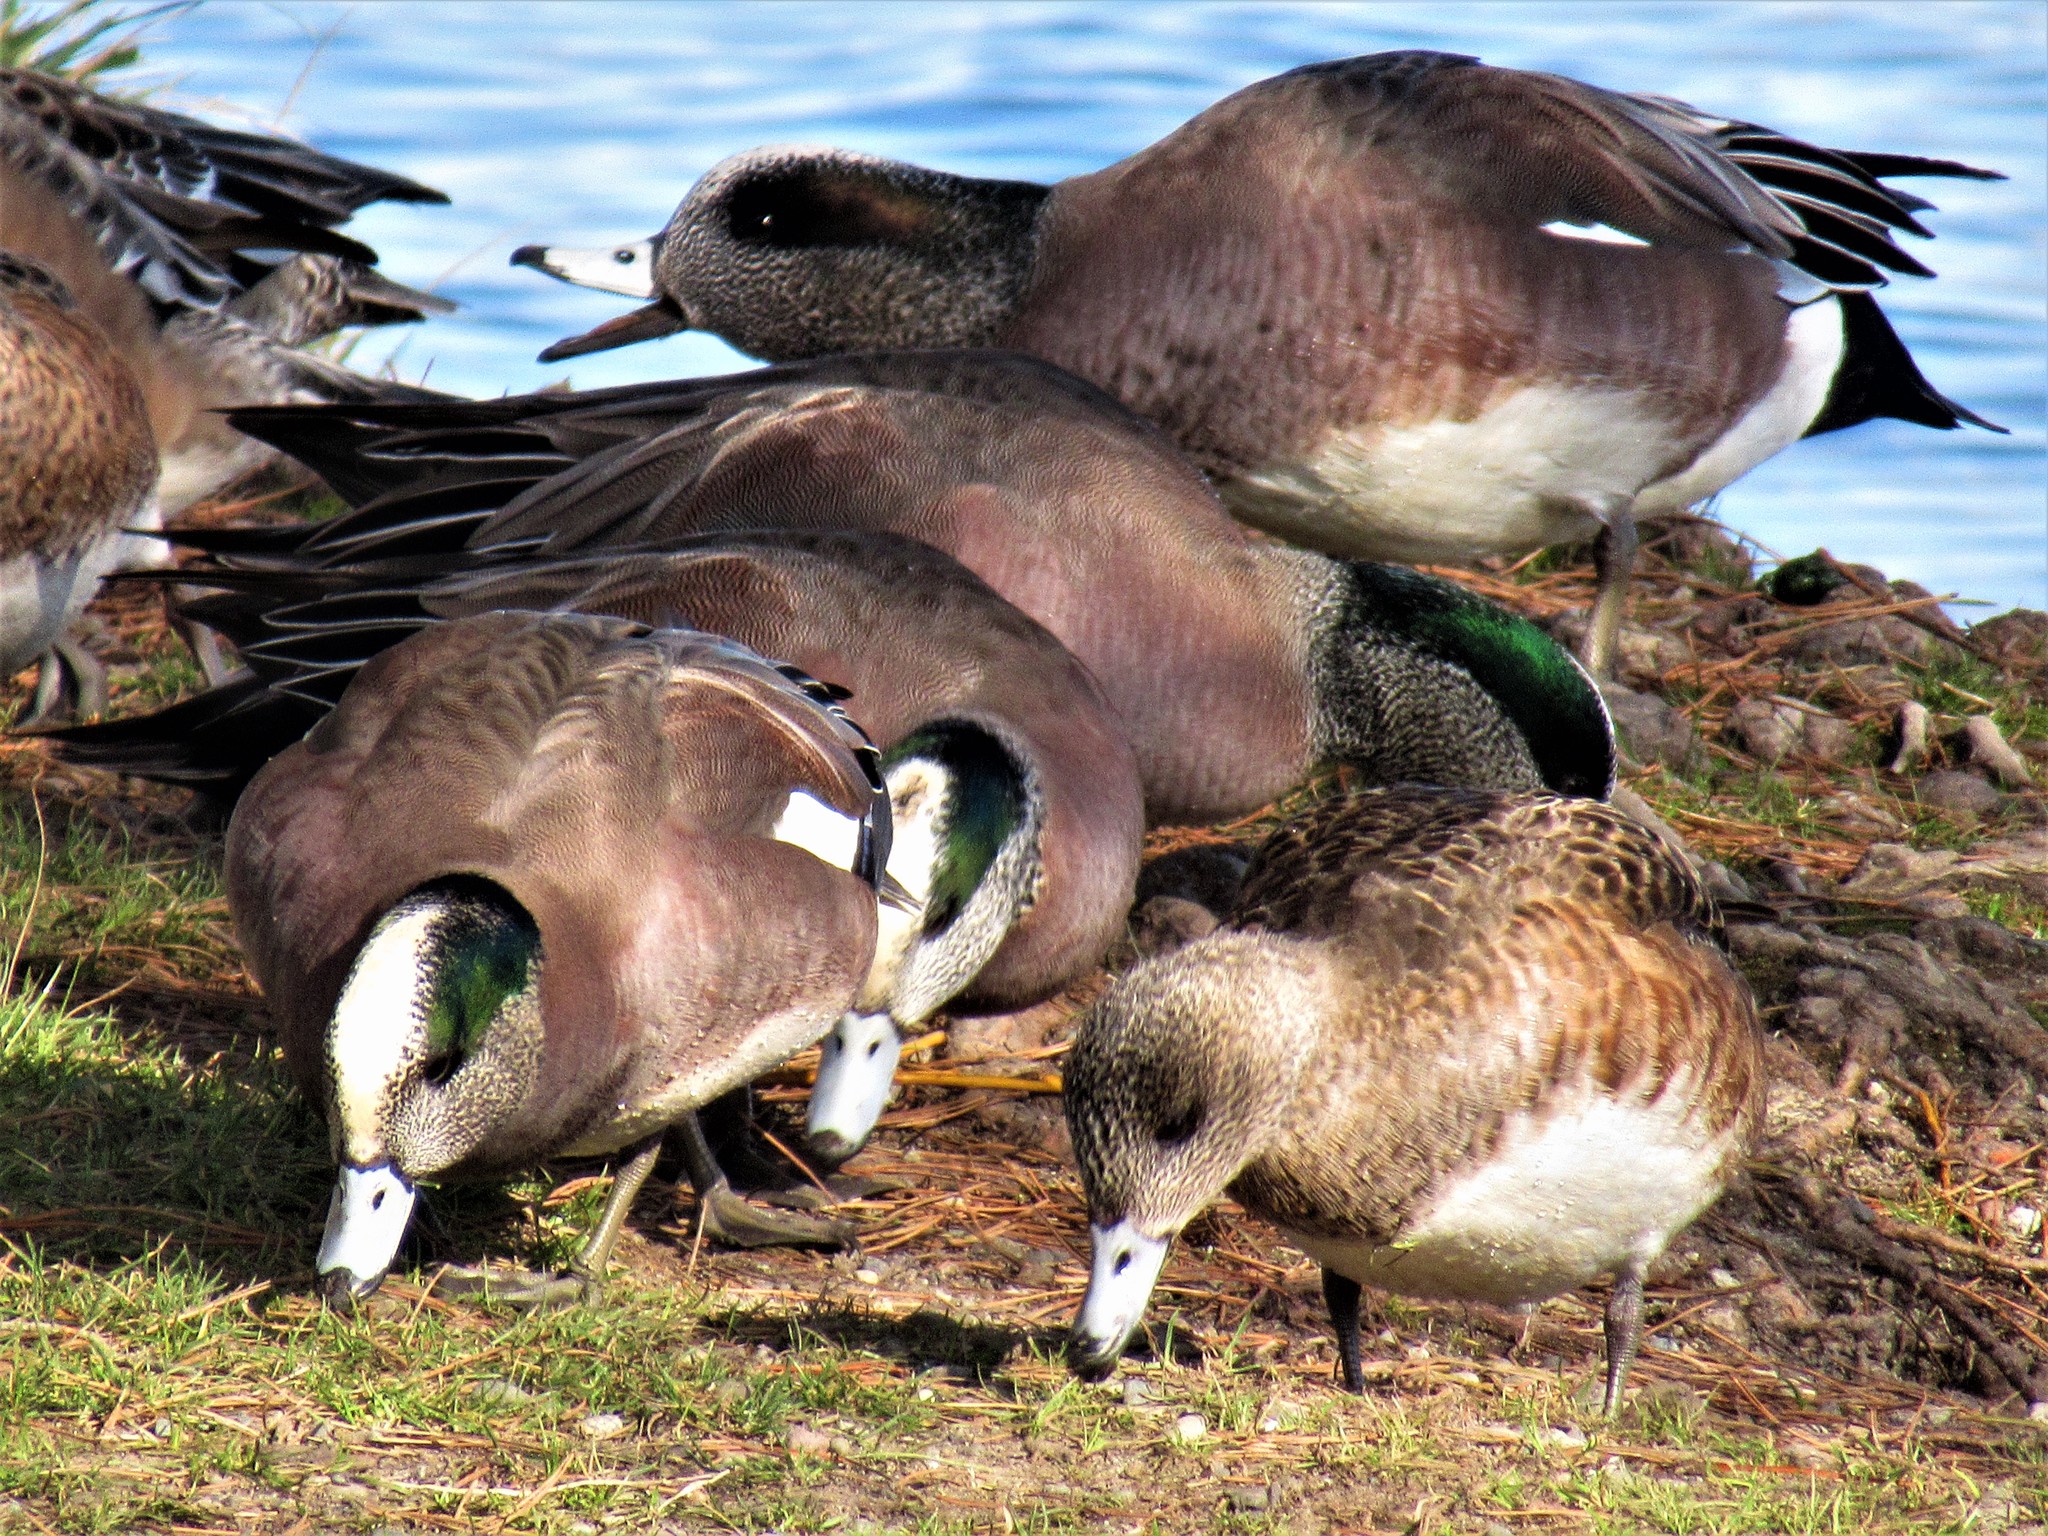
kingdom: Animalia
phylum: Chordata
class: Aves
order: Anseriformes
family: Anatidae
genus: Mareca
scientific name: Mareca americana
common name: American wigeon
